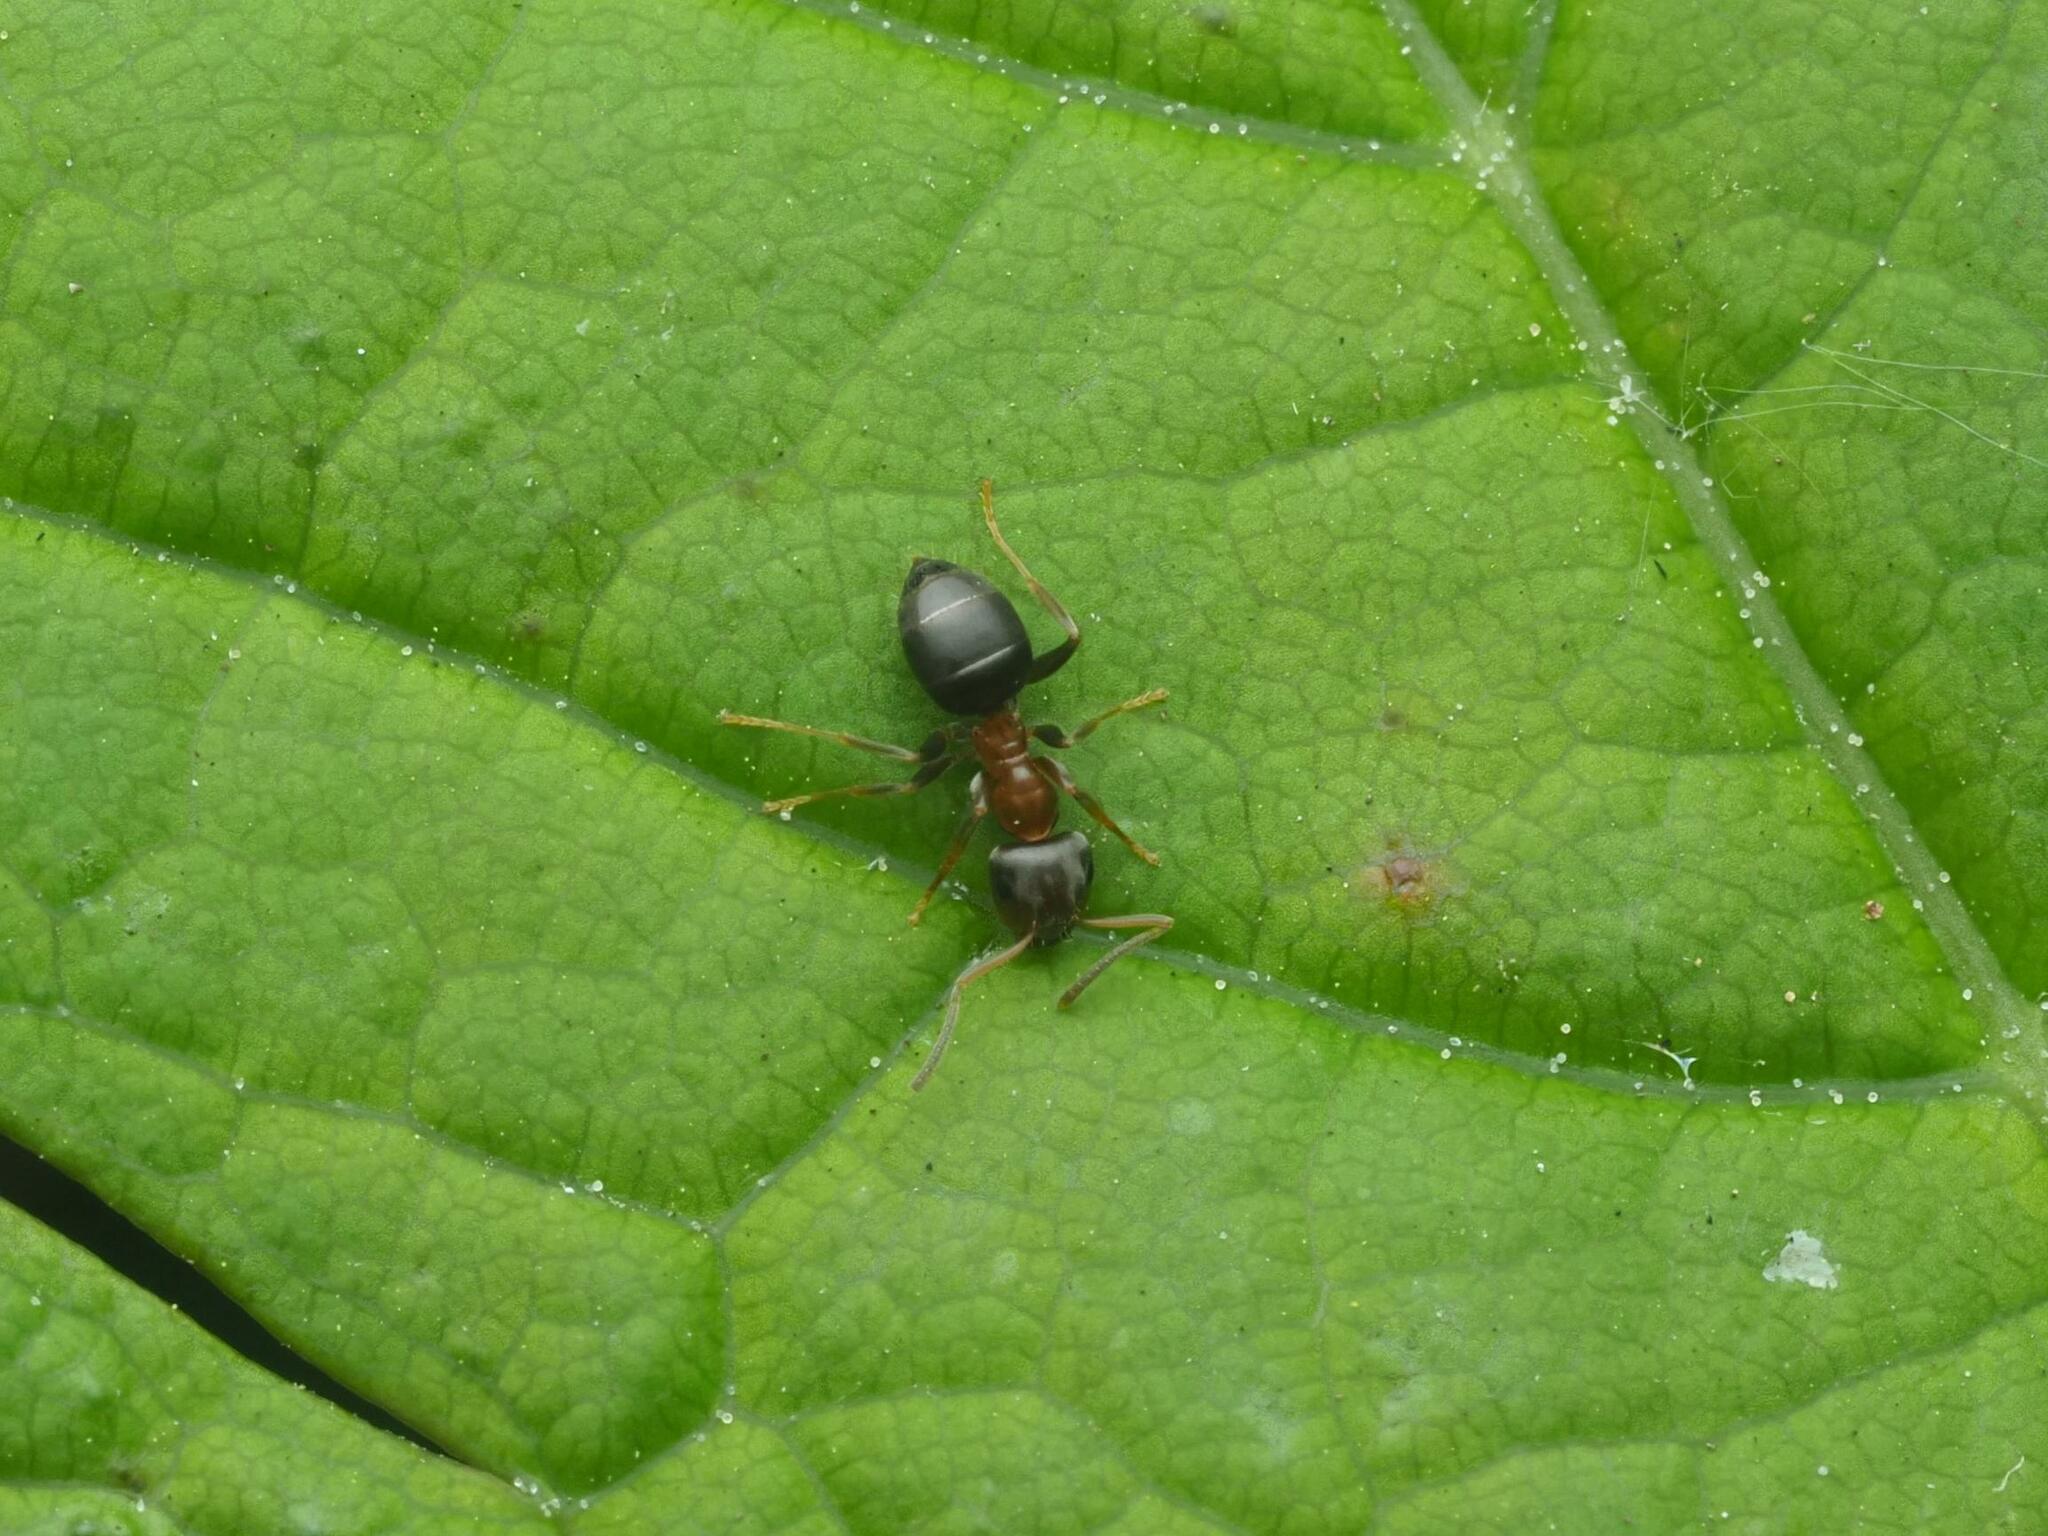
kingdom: Animalia
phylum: Arthropoda
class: Insecta
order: Hymenoptera
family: Formicidae
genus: Lasius
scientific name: Lasius brunneus
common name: Brown ant
